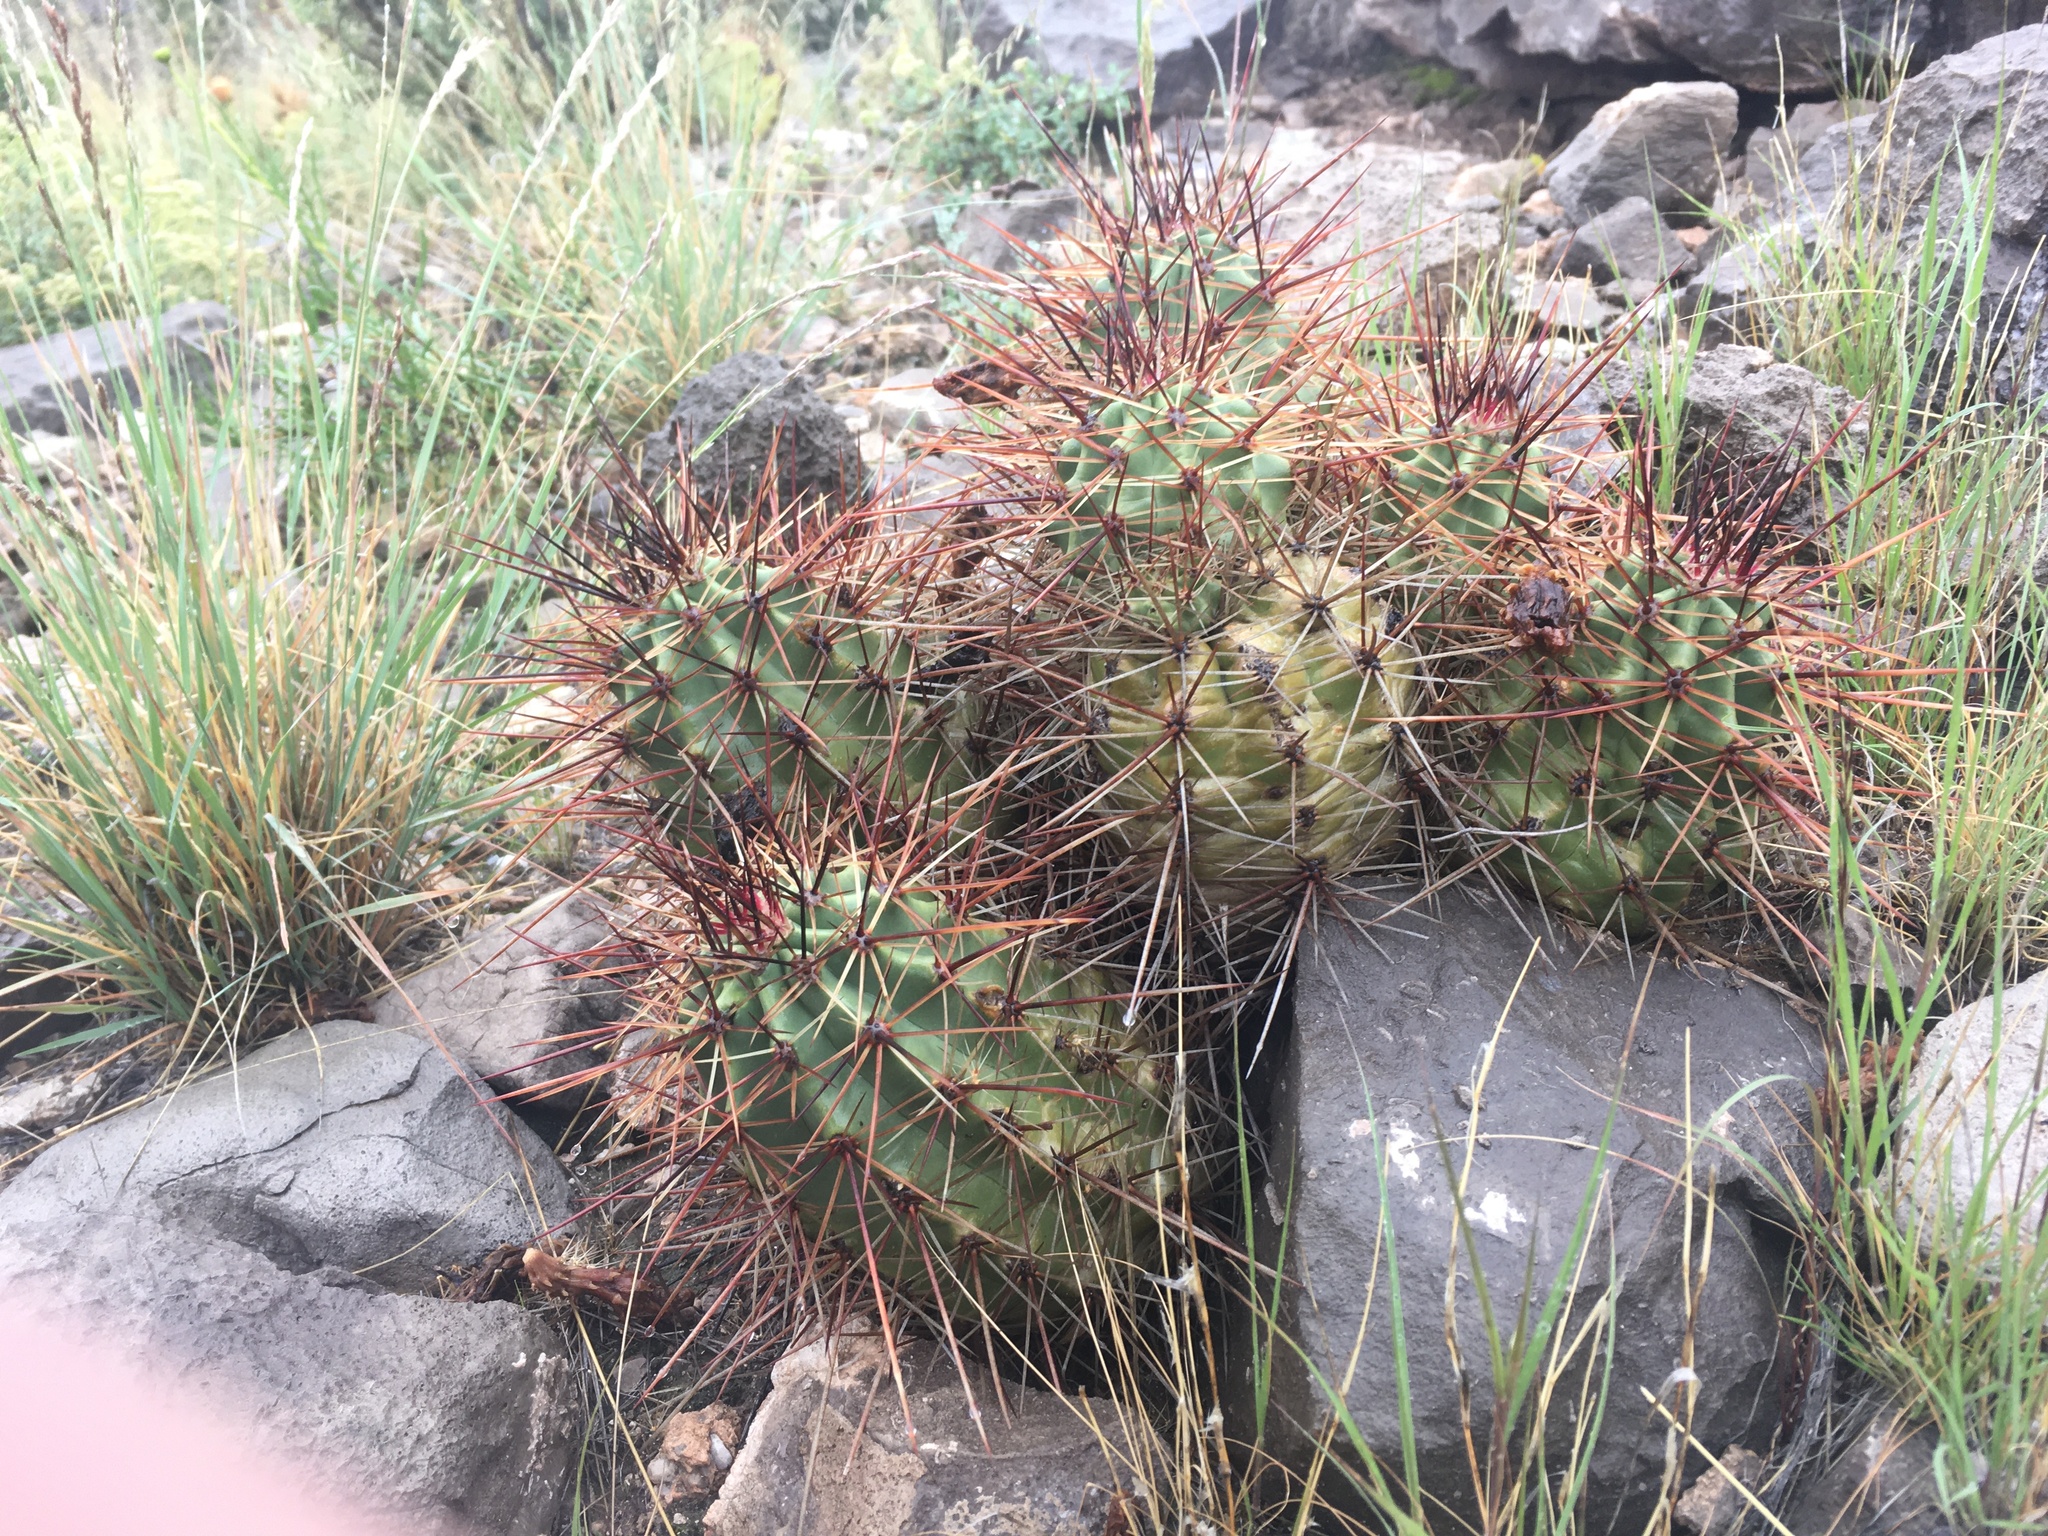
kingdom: Plantae
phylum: Tracheophyta
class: Magnoliopsida
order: Caryophyllales
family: Cactaceae
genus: Echinocereus
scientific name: Echinocereus coccineus
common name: Scarlet hedgehog cactus
